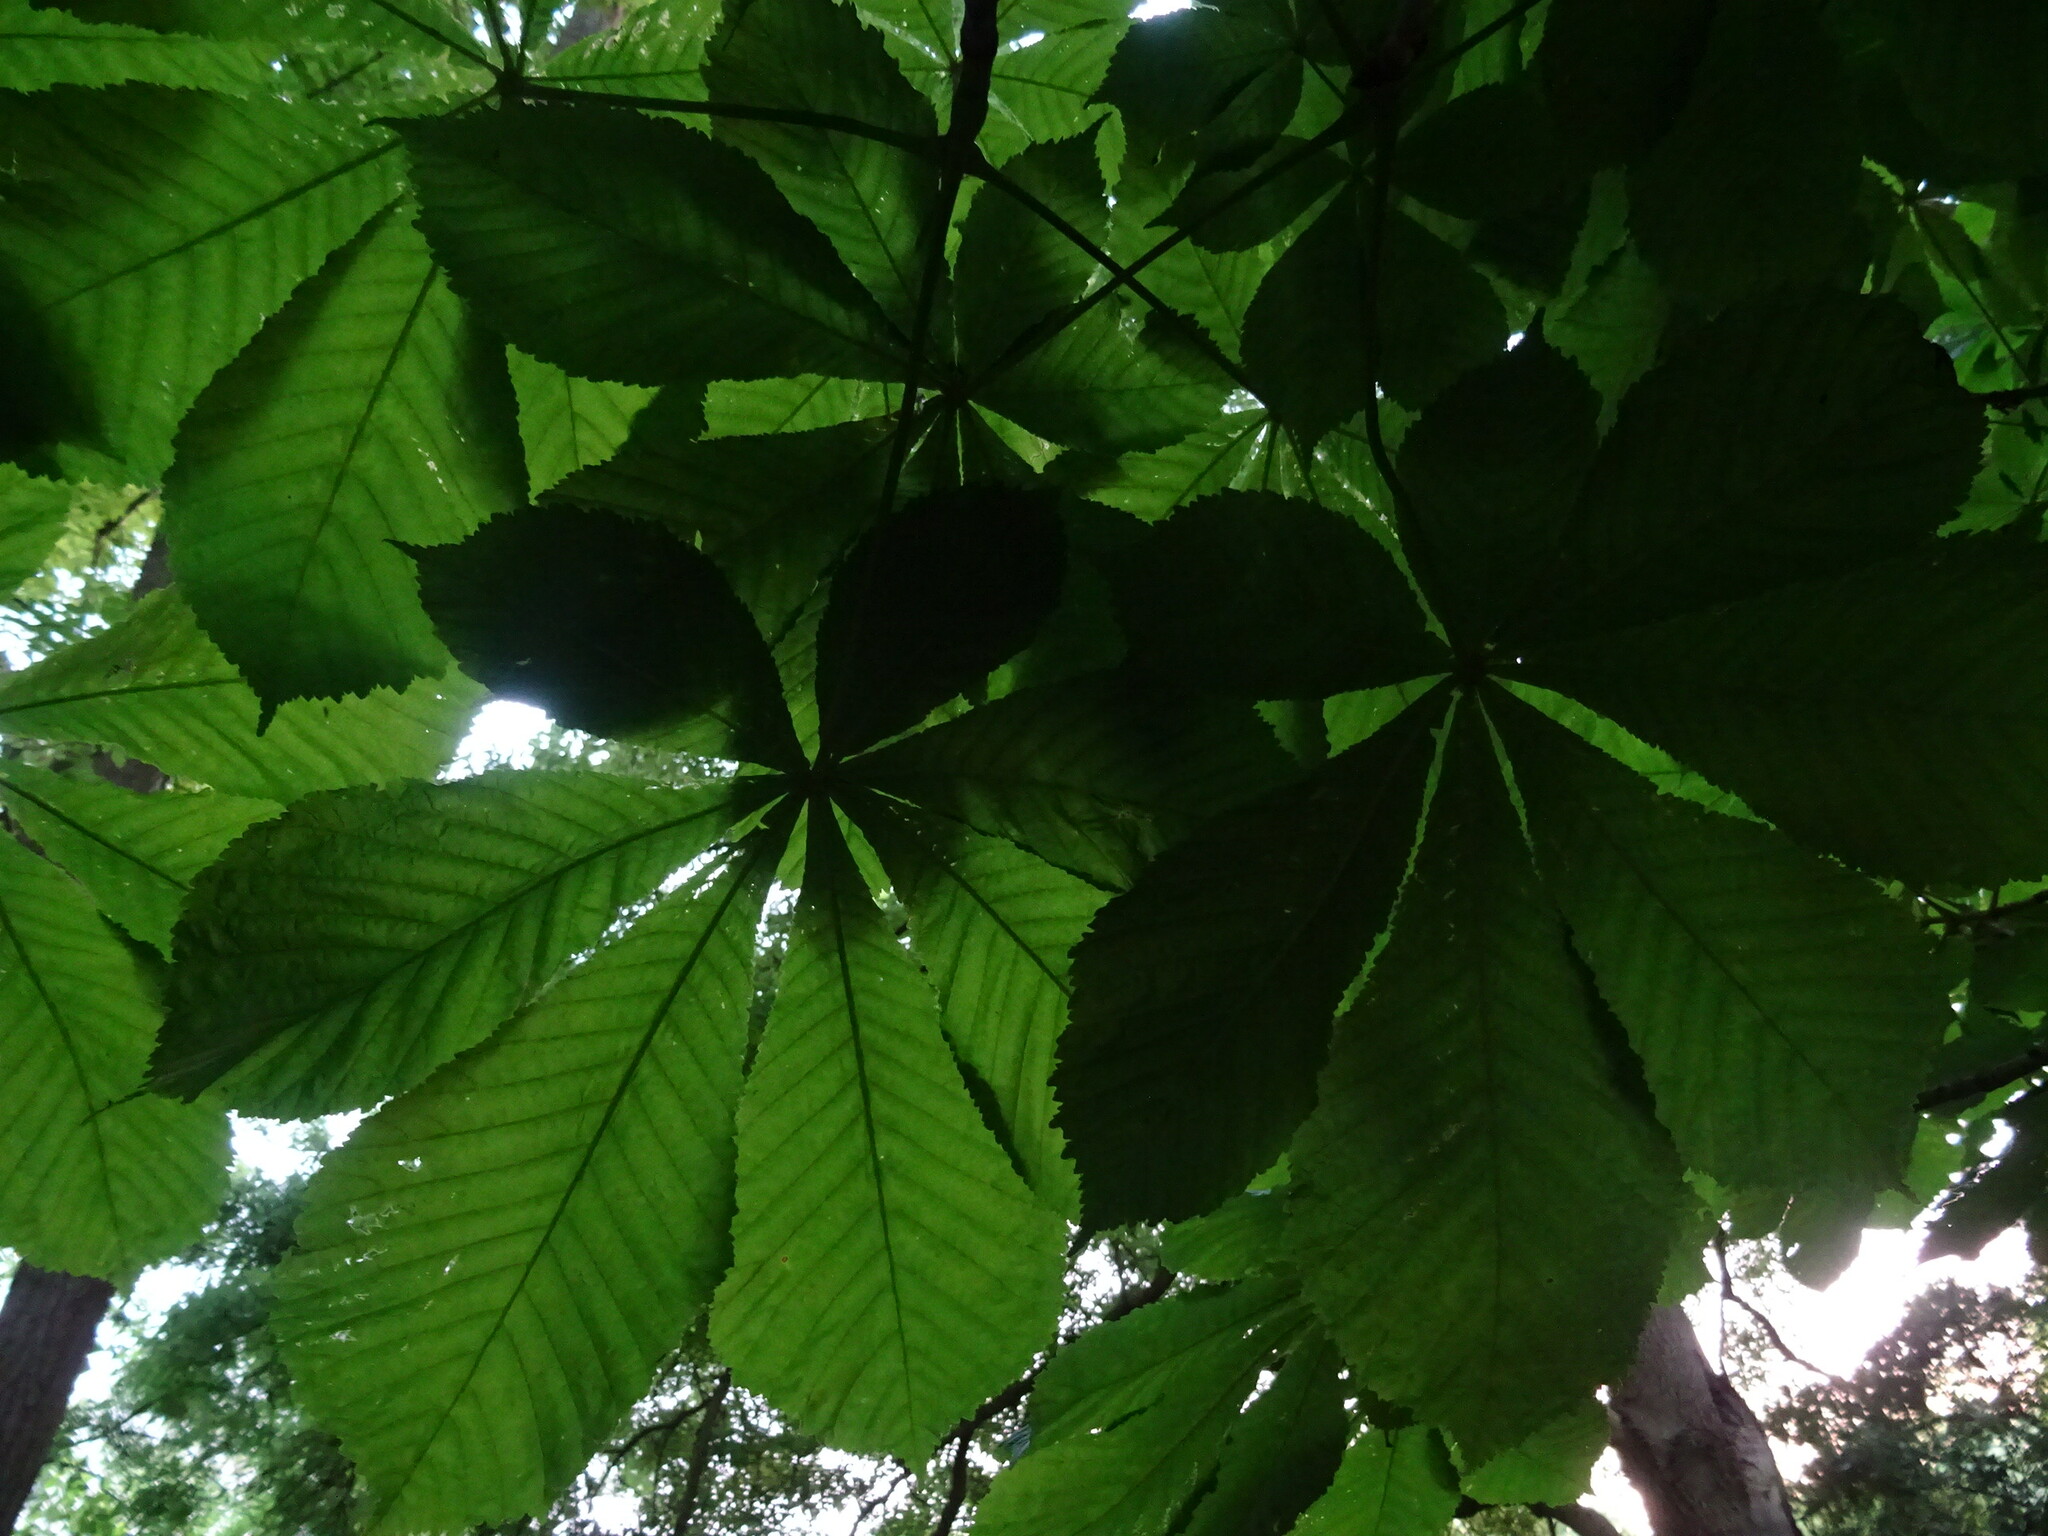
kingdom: Plantae
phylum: Tracheophyta
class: Magnoliopsida
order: Sapindales
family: Sapindaceae
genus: Aesculus
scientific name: Aesculus hippocastanum
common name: Horse-chestnut
